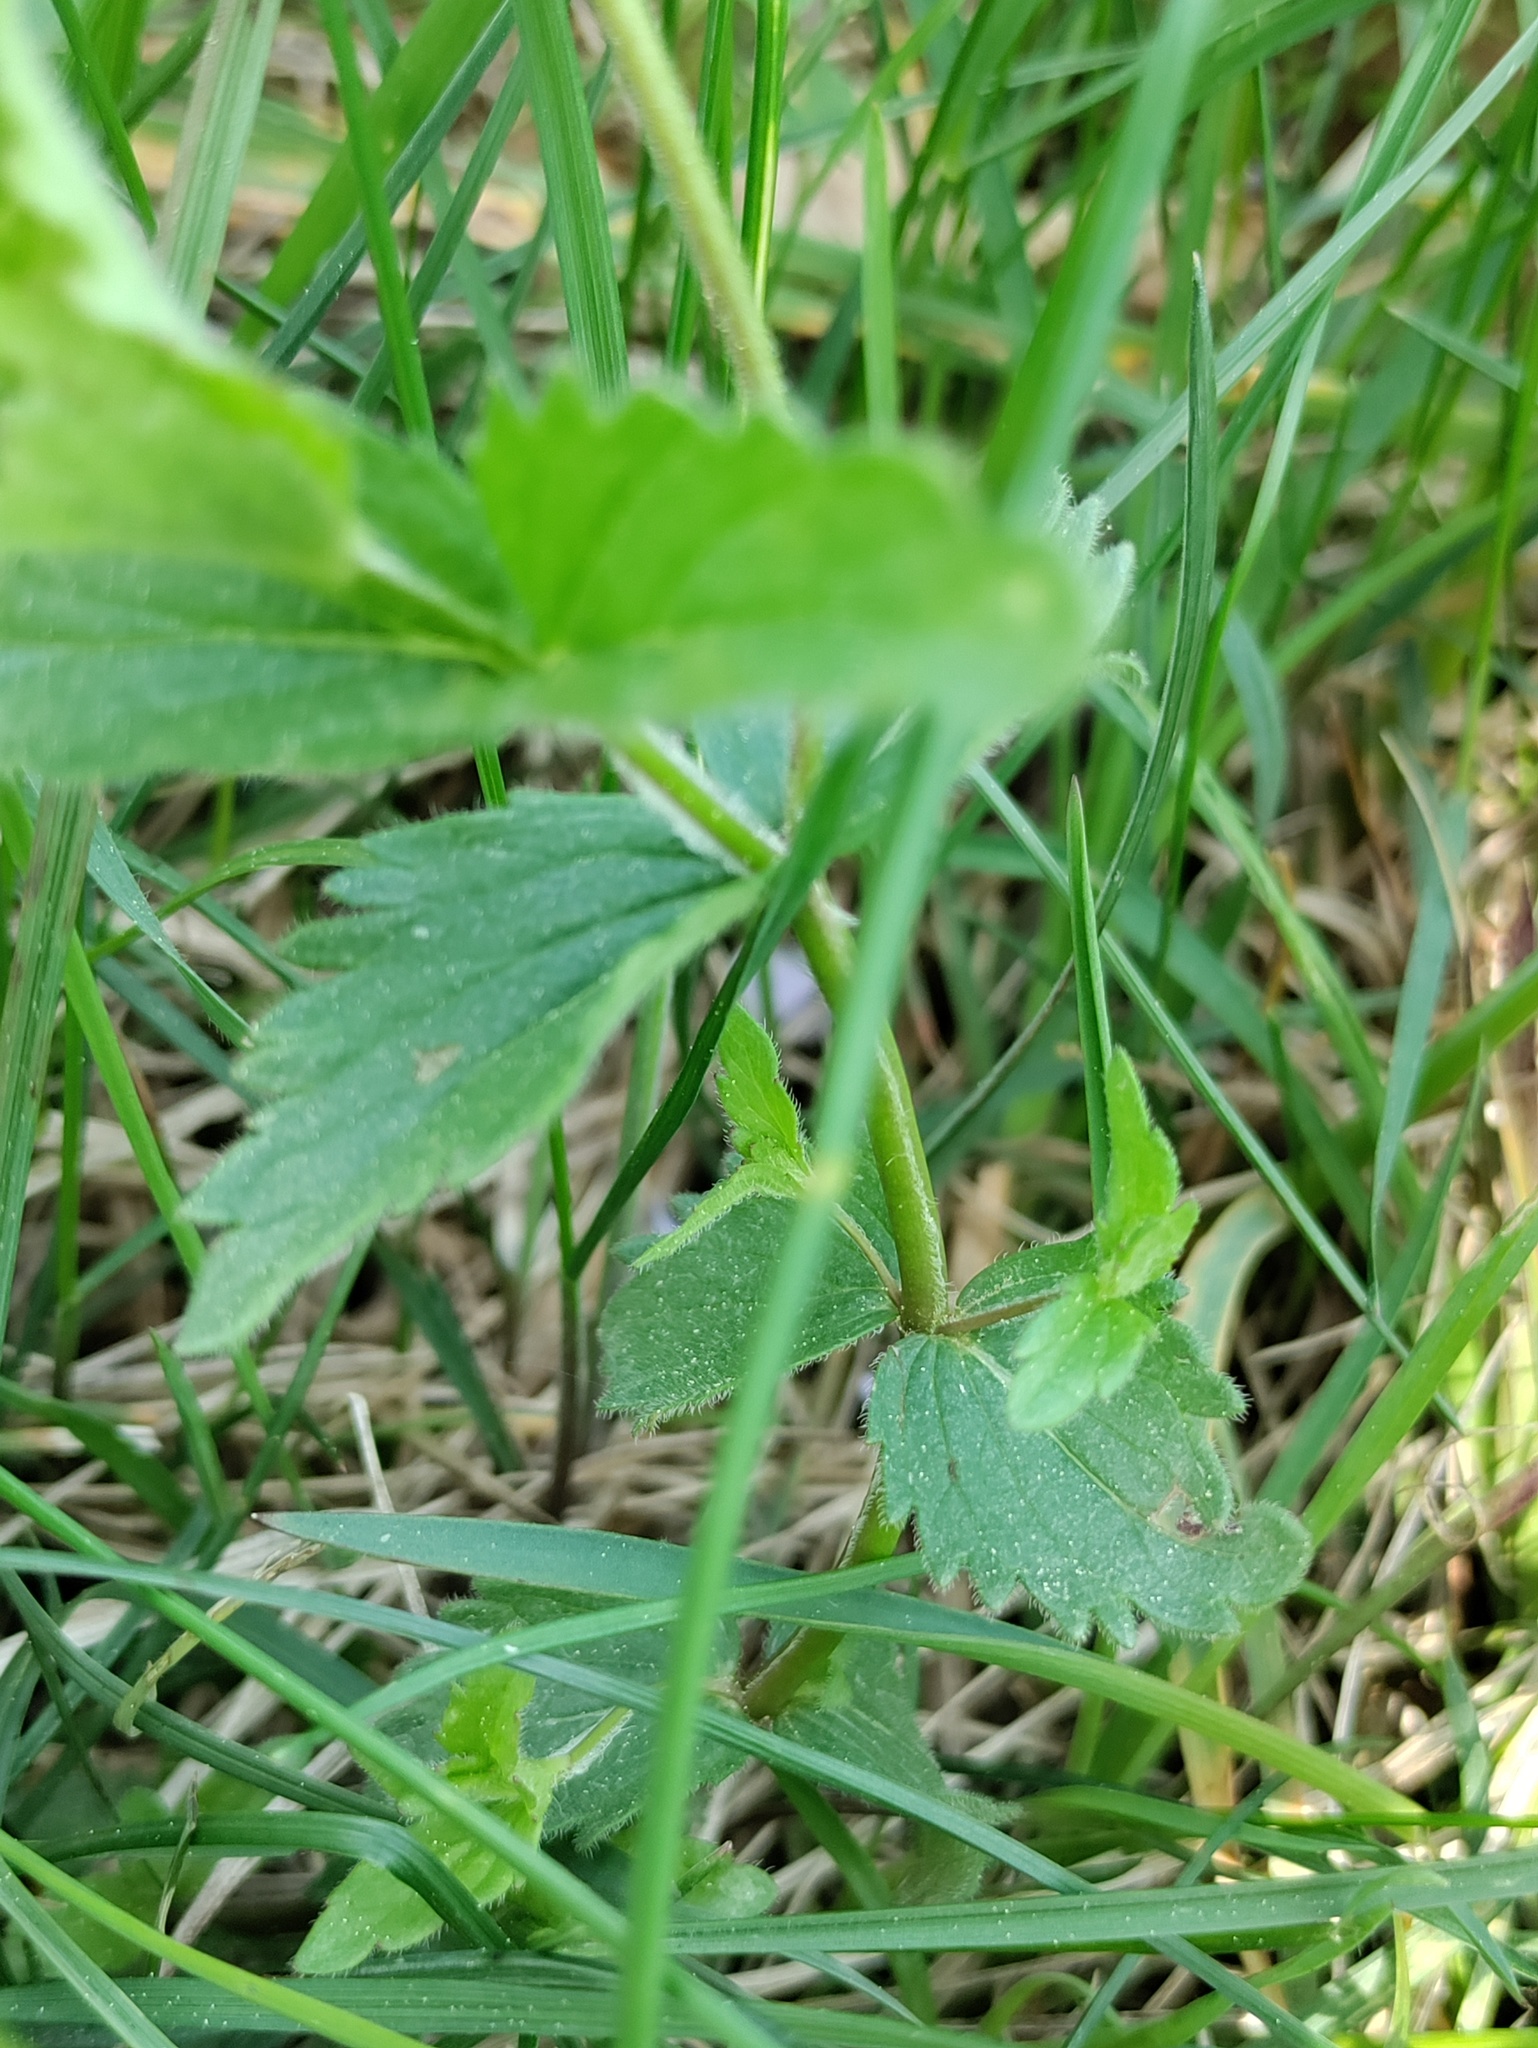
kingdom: Plantae
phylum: Tracheophyta
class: Magnoliopsida
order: Lamiales
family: Plantaginaceae
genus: Veronica
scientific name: Veronica chamaedrys
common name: Germander speedwell
